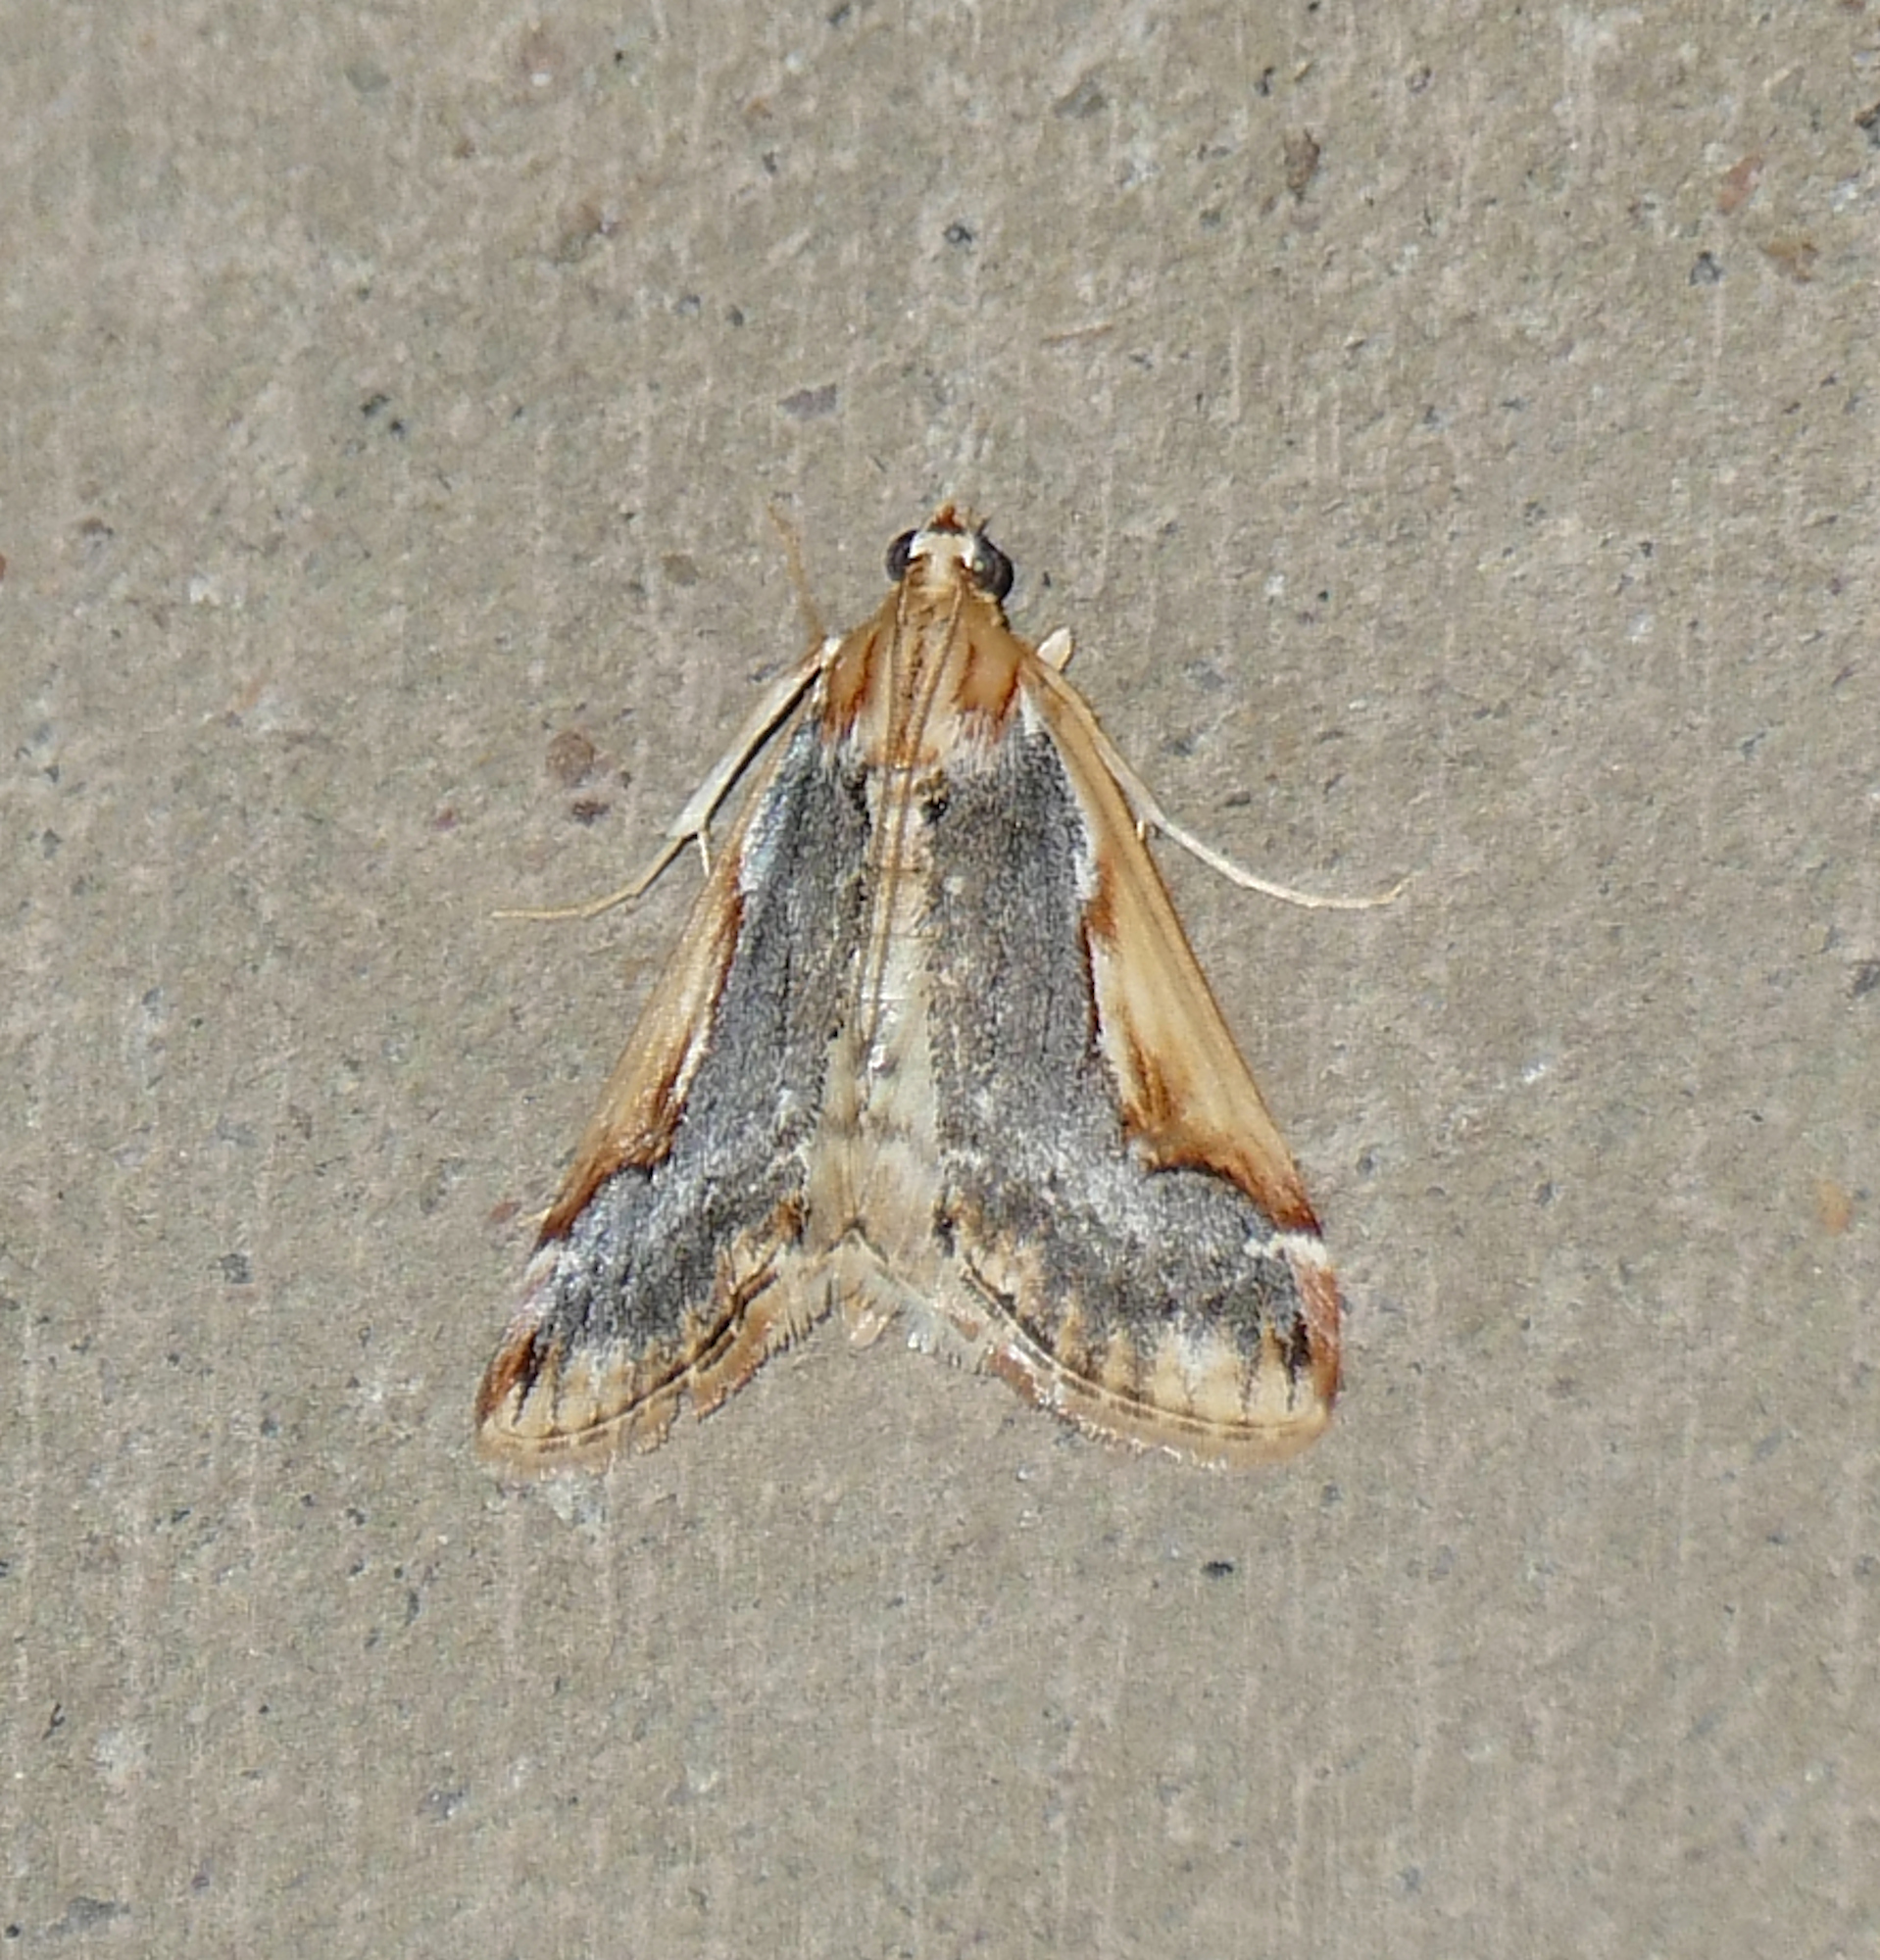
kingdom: Animalia
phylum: Arthropoda
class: Insecta
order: Lepidoptera
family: Crambidae
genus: Loxostege
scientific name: Loxostege albiceralis
